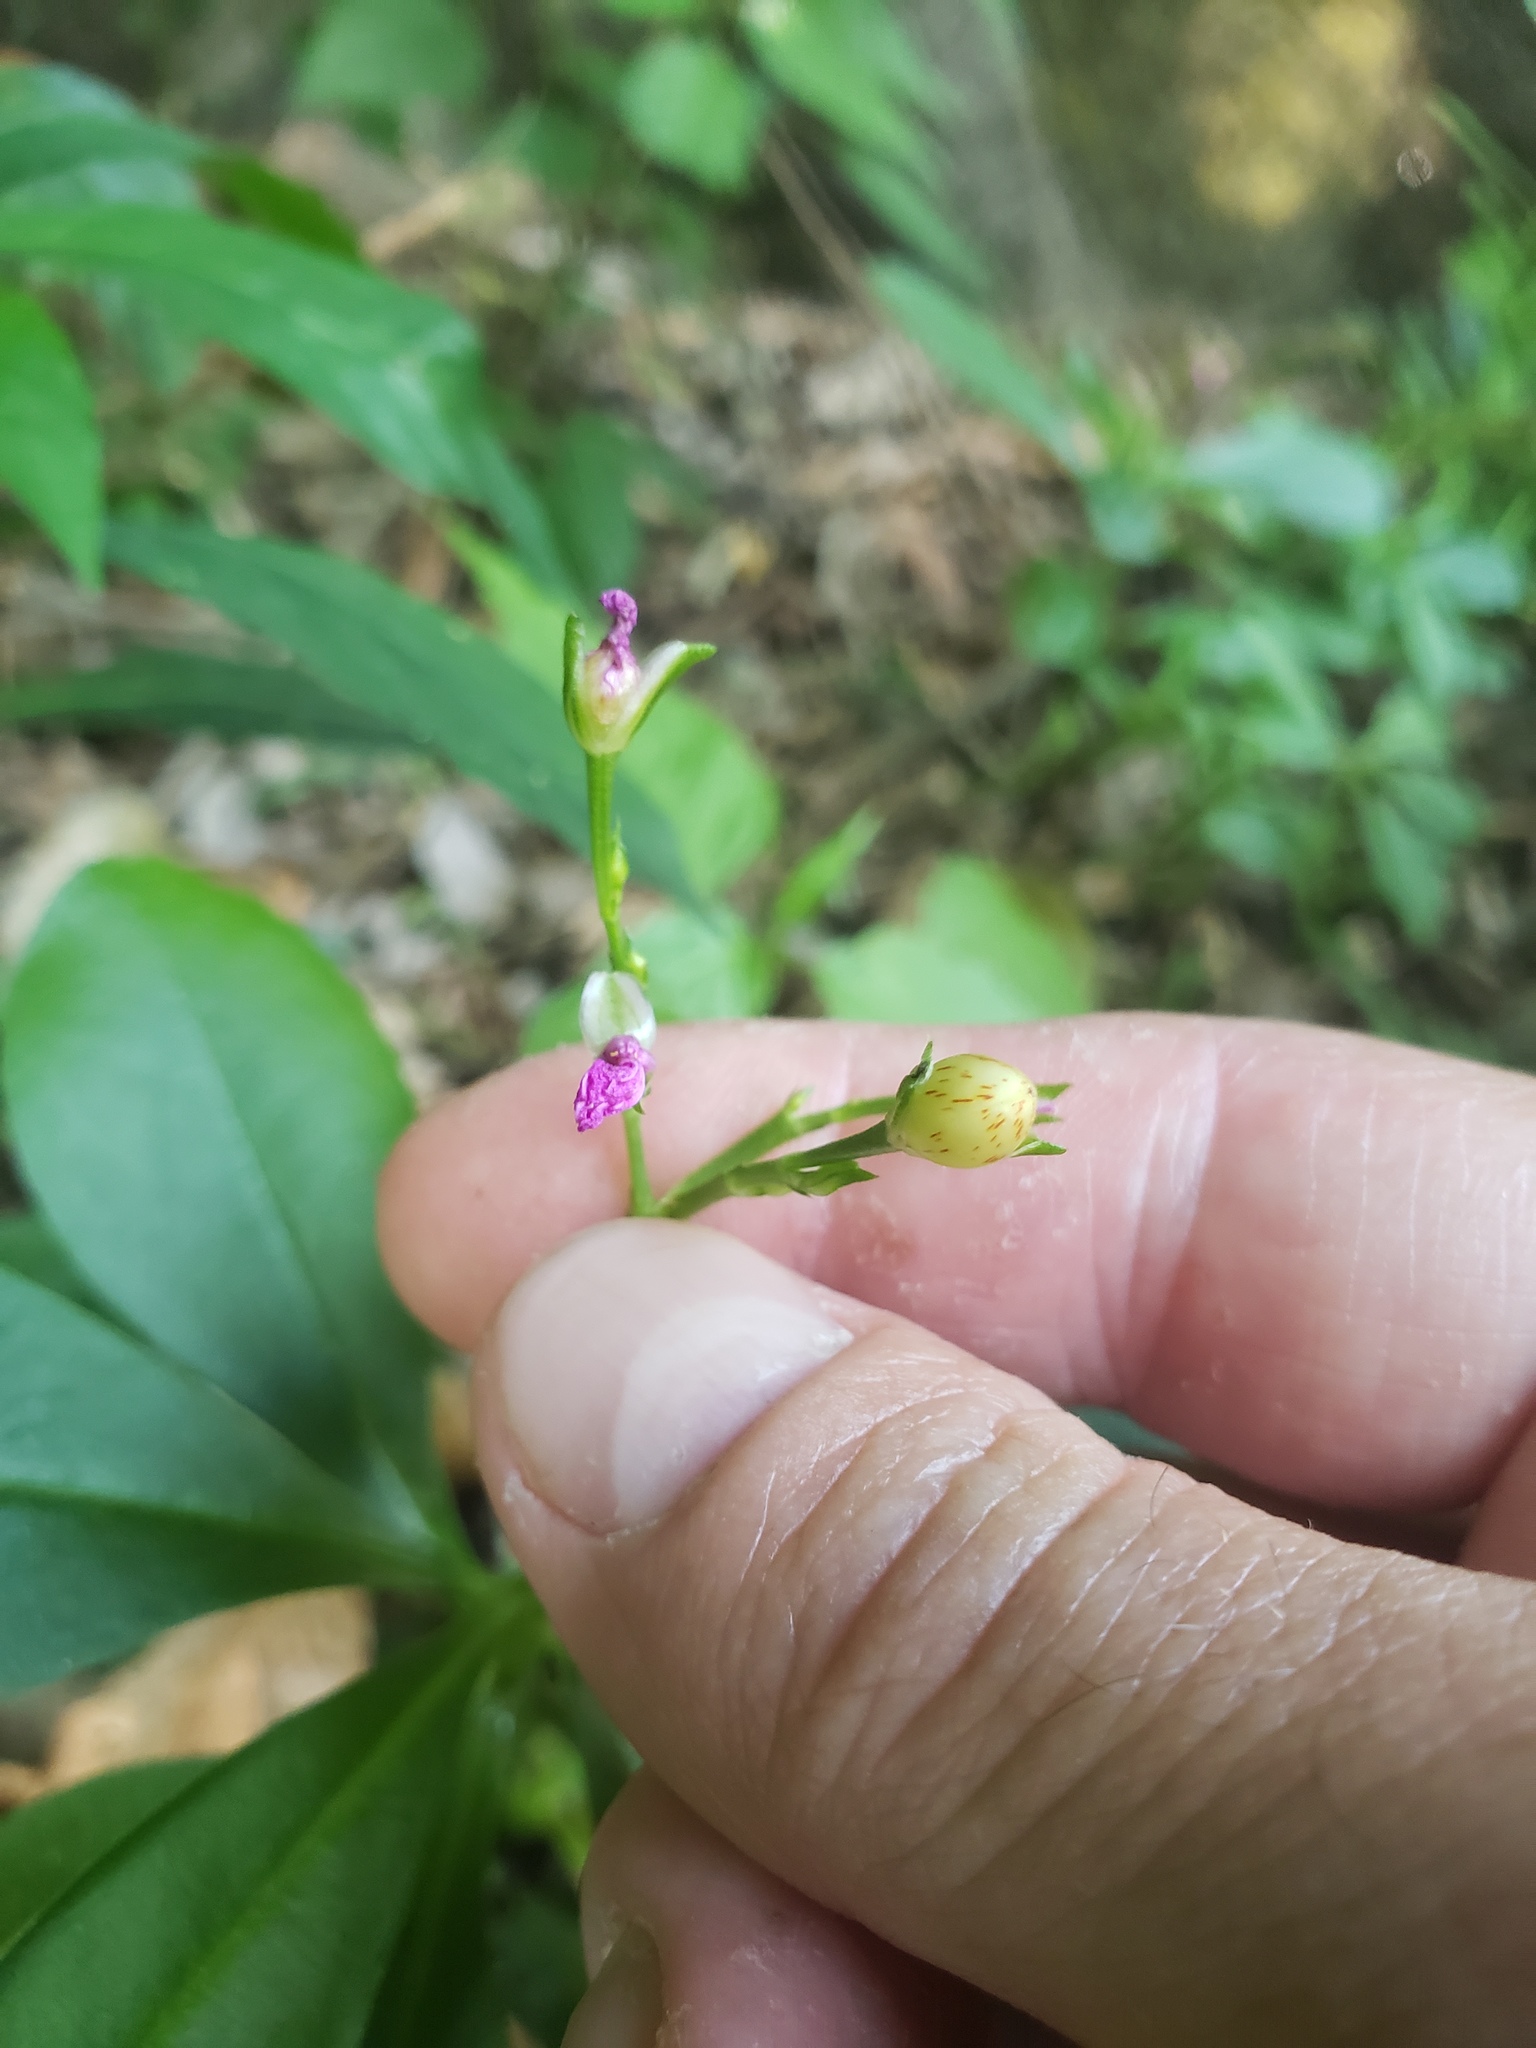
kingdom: Plantae
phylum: Tracheophyta
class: Magnoliopsida
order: Caryophyllales
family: Talinaceae
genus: Talinum
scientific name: Talinum fruticosum
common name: Verdolaga-francesa
